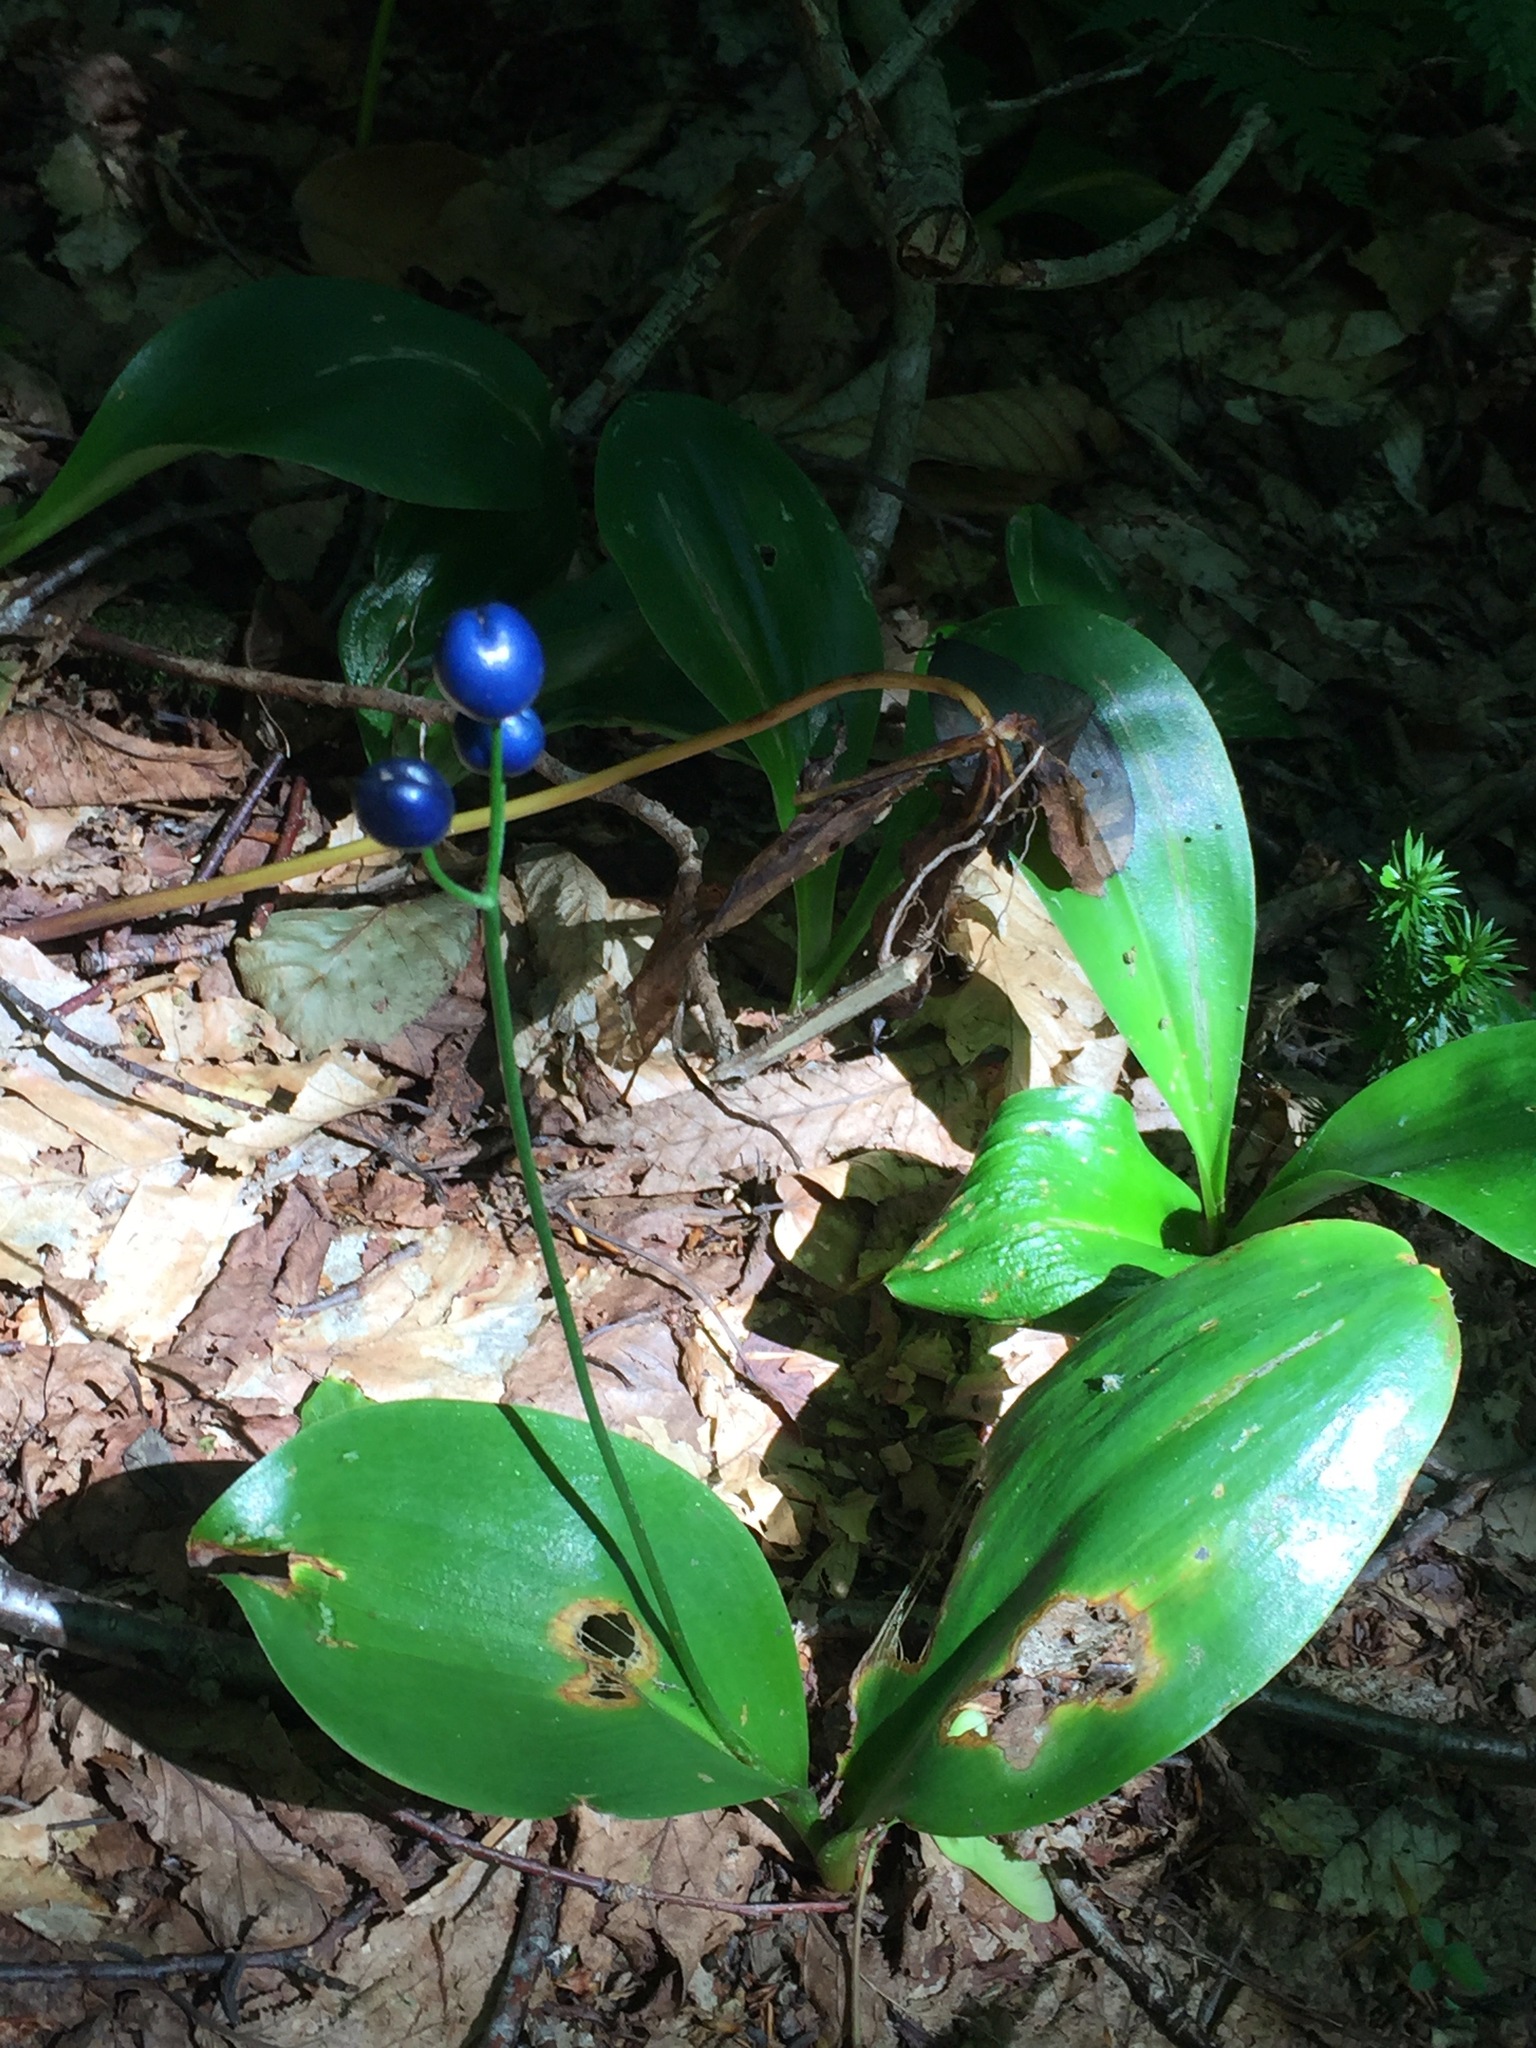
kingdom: Plantae
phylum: Tracheophyta
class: Liliopsida
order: Liliales
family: Liliaceae
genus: Clintonia
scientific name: Clintonia borealis
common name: Yellow clintonia
